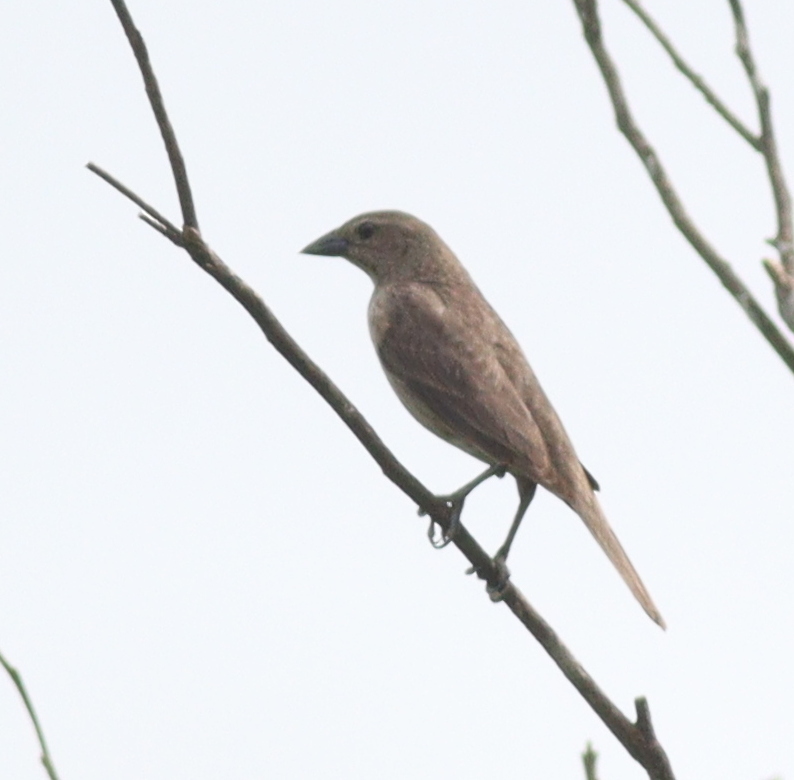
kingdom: Animalia
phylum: Chordata
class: Aves
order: Passeriformes
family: Icteridae
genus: Molothrus
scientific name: Molothrus bonariensis
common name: Shiny cowbird
